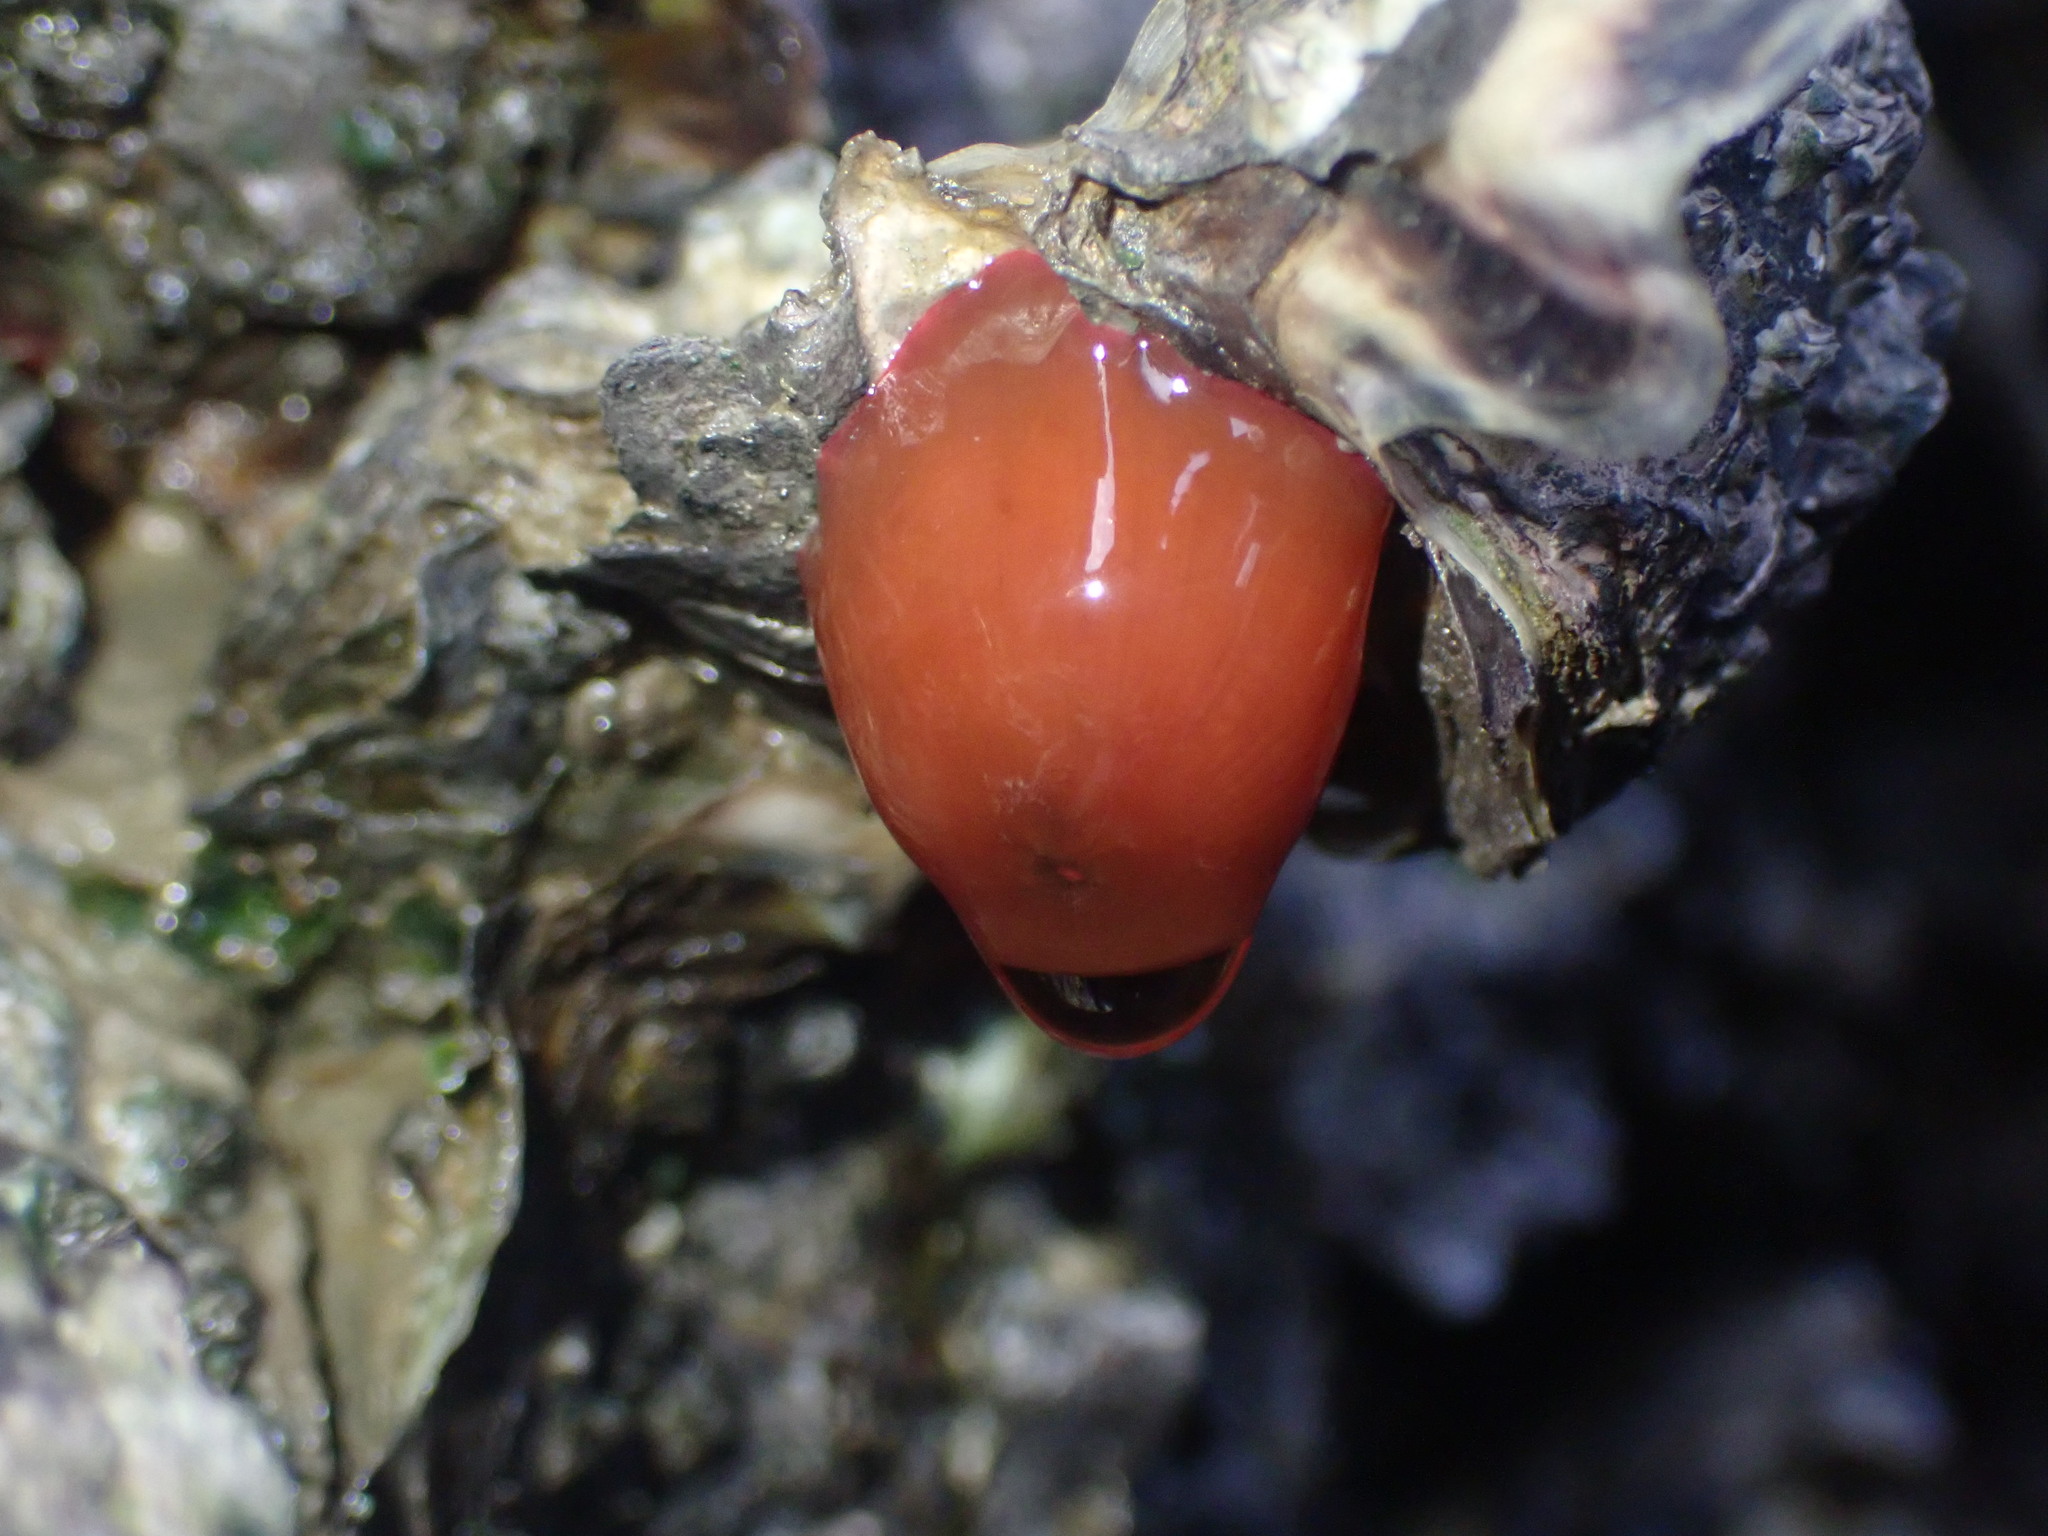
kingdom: Animalia
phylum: Cnidaria
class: Anthozoa
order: Actiniaria
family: Actiniidae
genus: Actinia
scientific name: Actinia tenebrosa
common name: Waratah anemone
